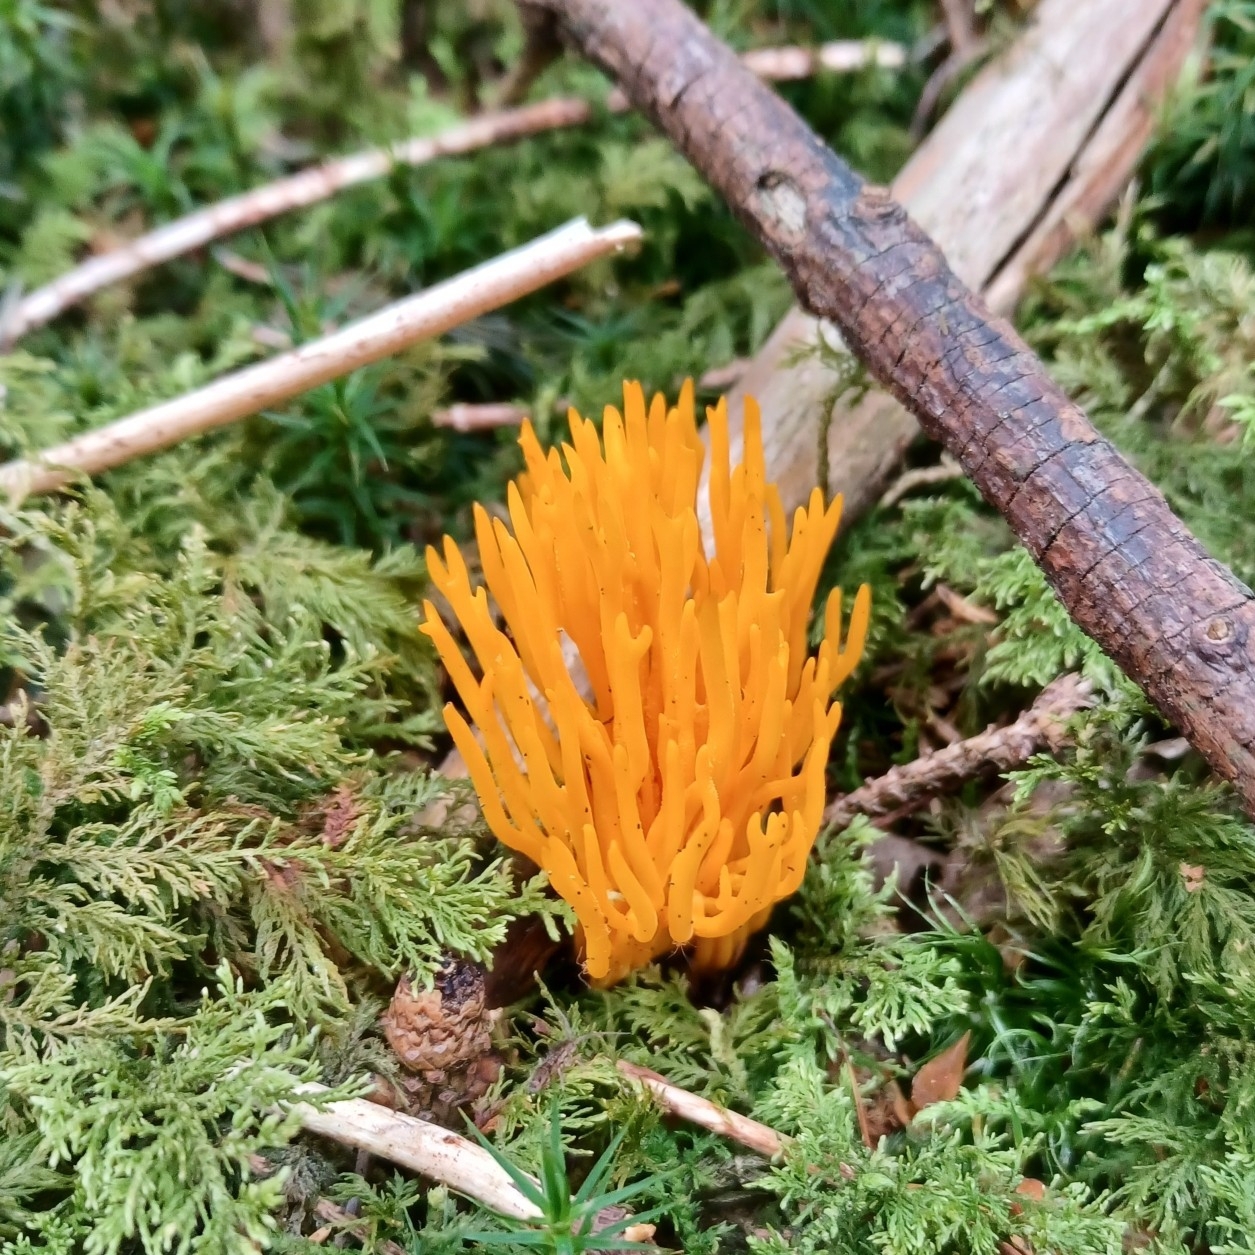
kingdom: Fungi
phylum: Basidiomycota
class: Dacrymycetes
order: Dacrymycetales
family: Dacrymycetaceae
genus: Calocera
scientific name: Calocera viscosa
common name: Yellow stagshorn
